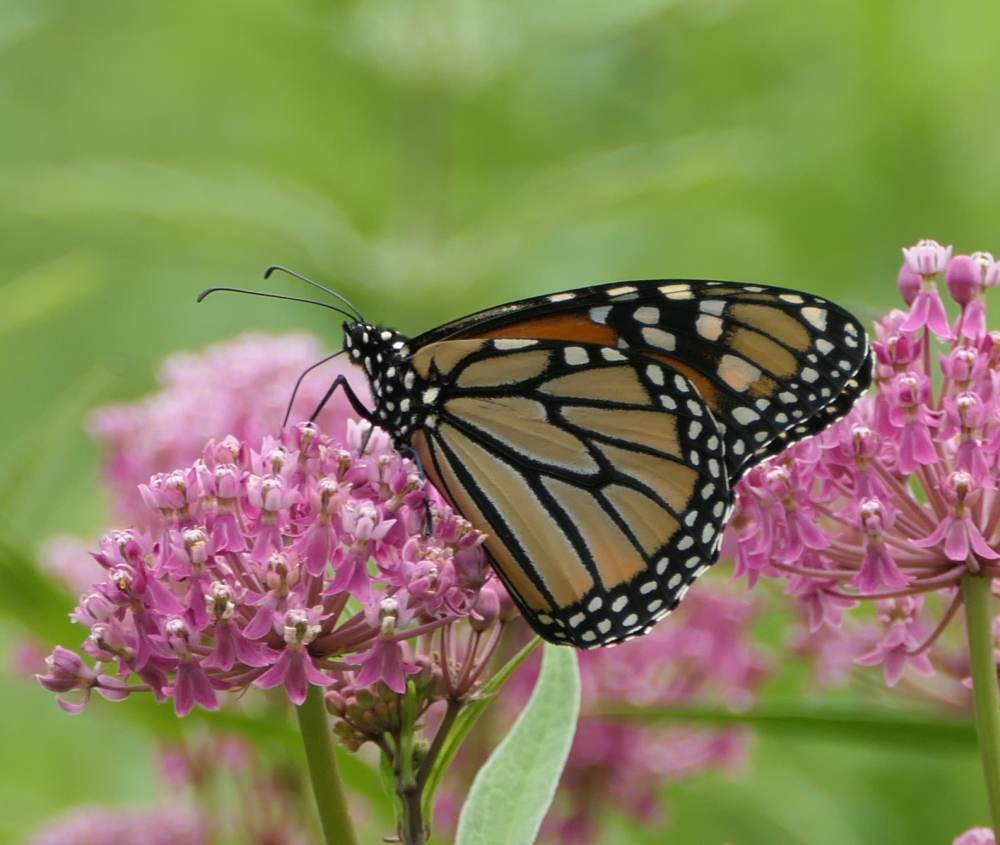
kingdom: Animalia
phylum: Arthropoda
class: Insecta
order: Lepidoptera
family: Nymphalidae
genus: Danaus
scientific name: Danaus plexippus
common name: Monarch
